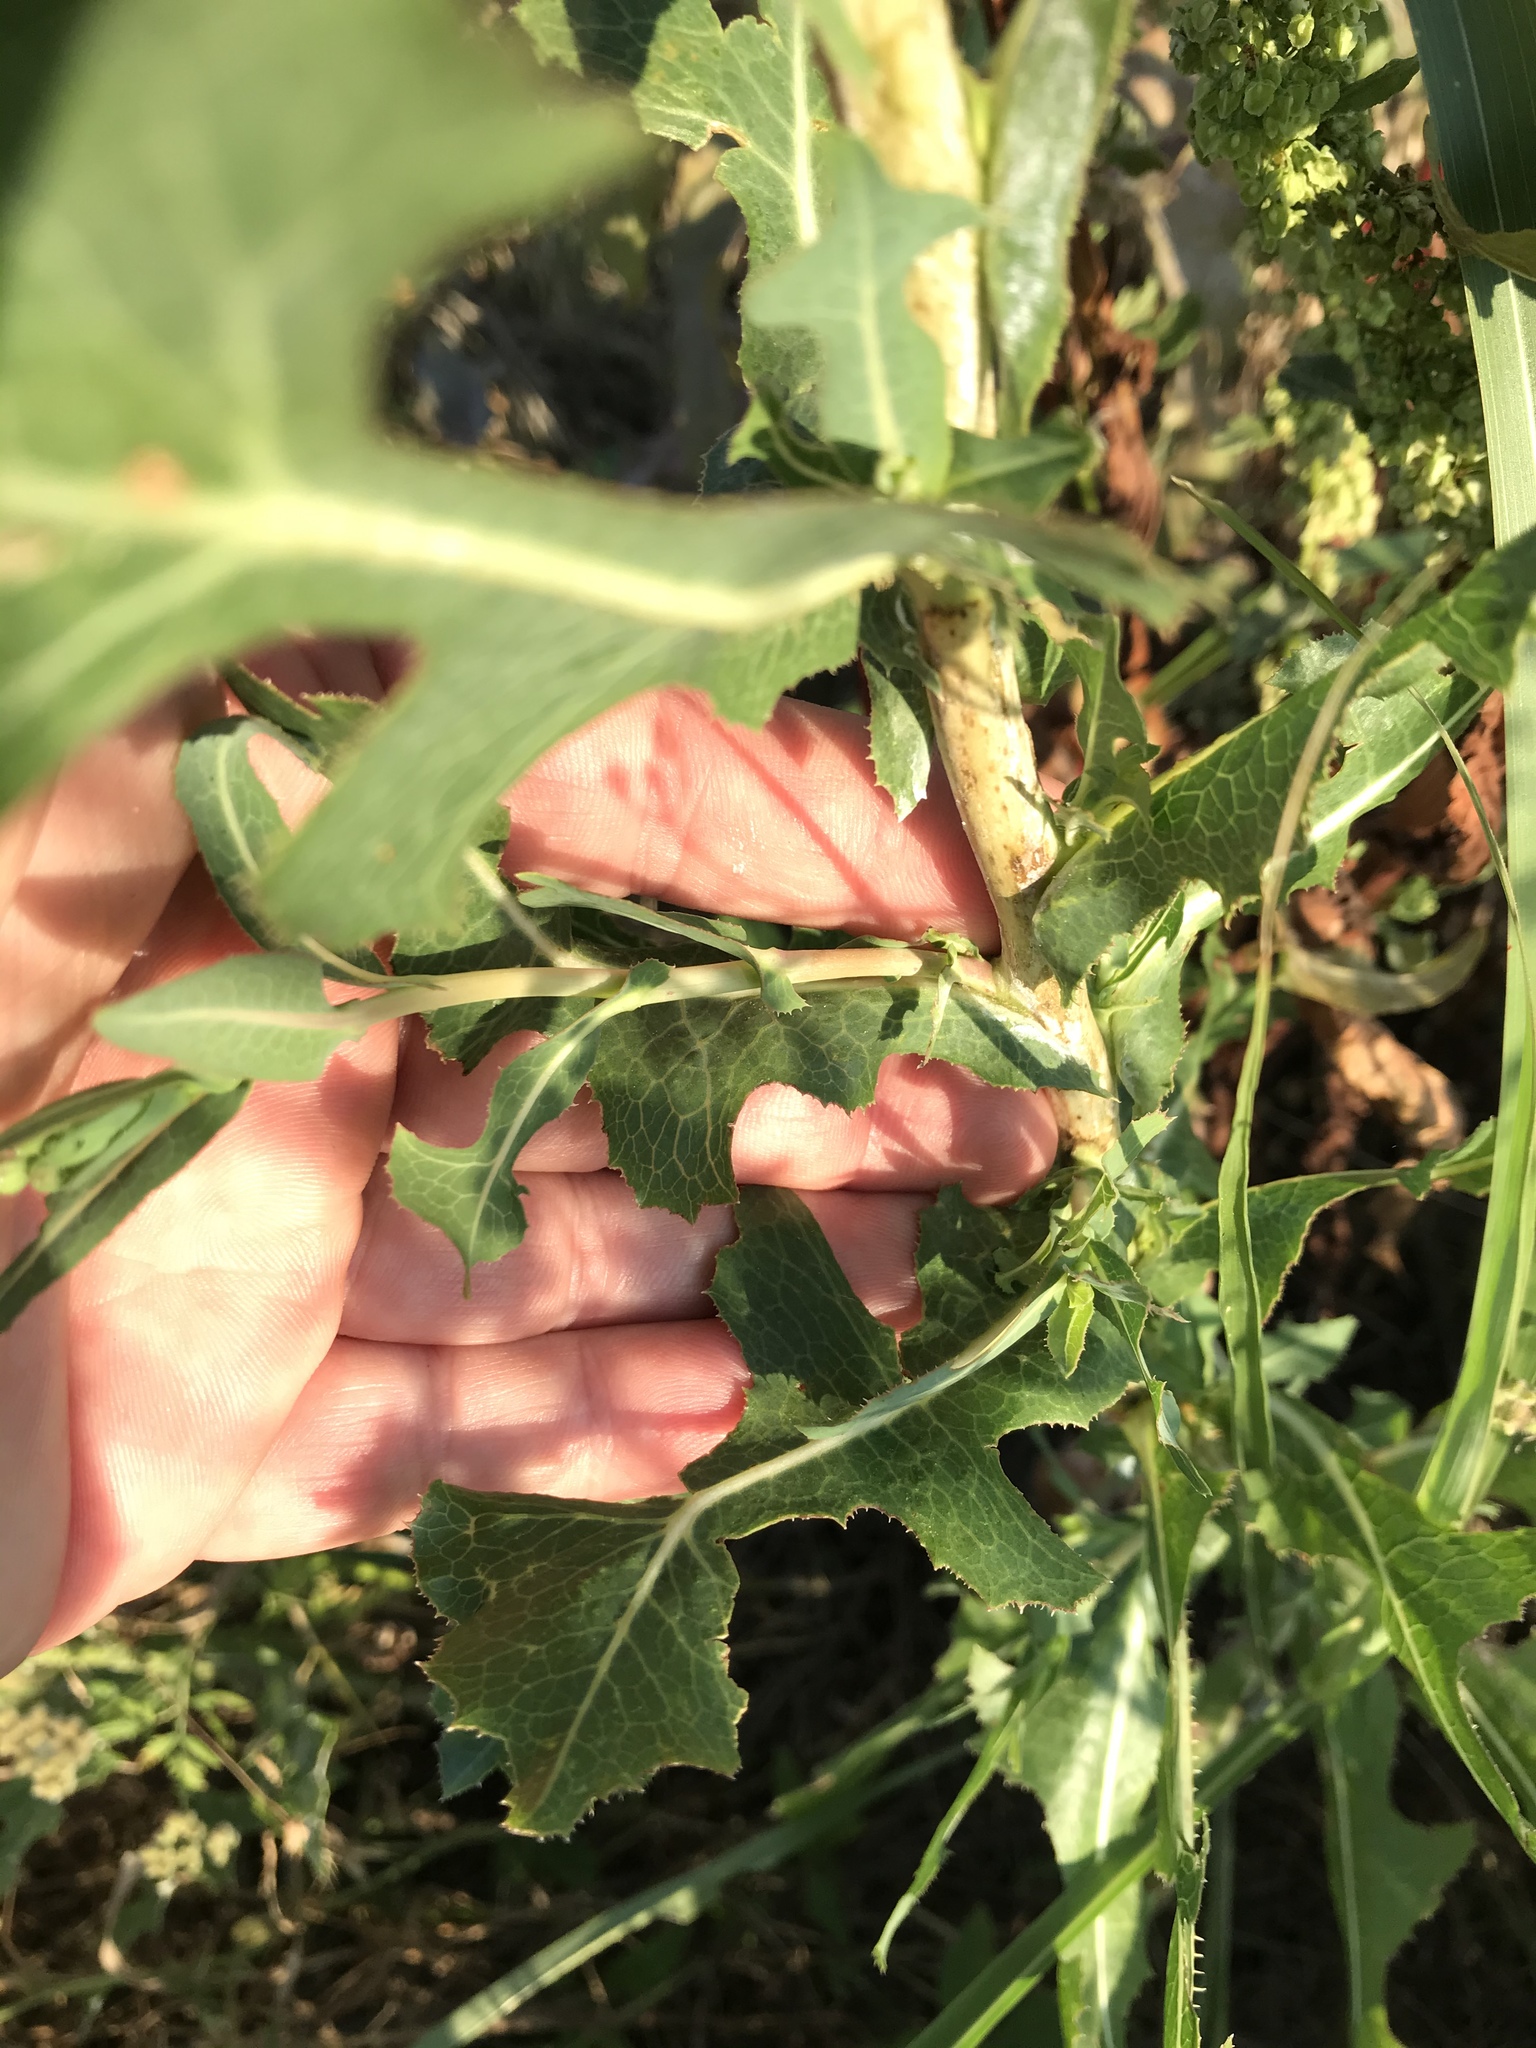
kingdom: Plantae
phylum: Tracheophyta
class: Magnoliopsida
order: Asterales
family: Asteraceae
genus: Lactuca
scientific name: Lactuca serriola
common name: Prickly lettuce
